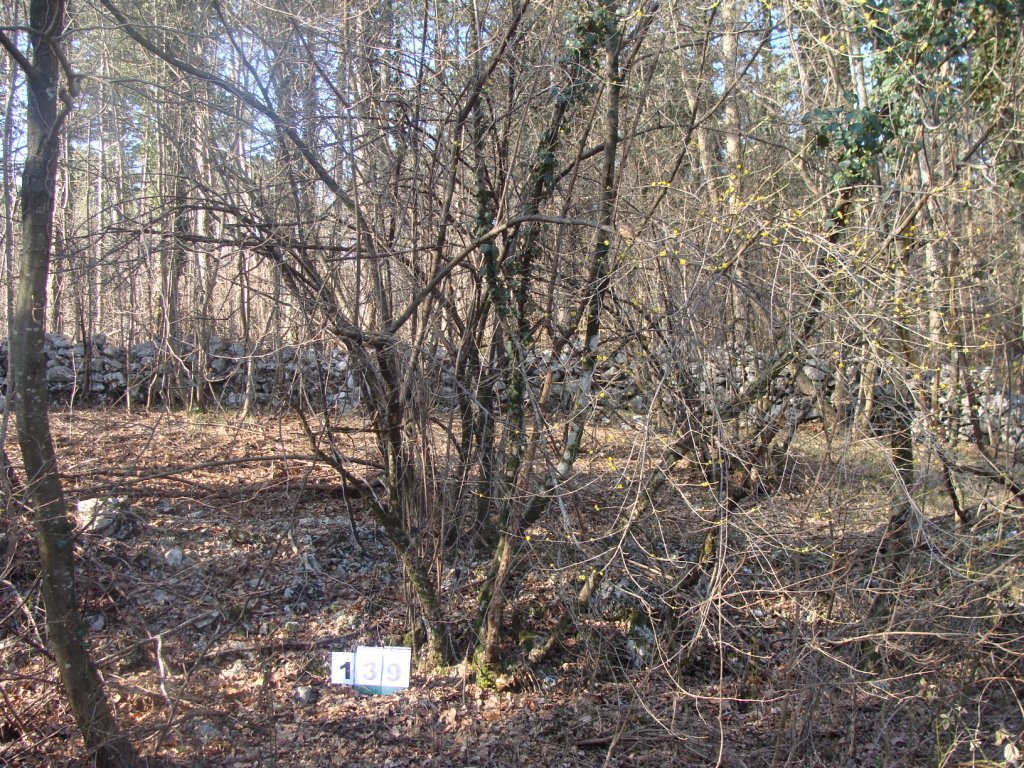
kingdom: Plantae
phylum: Tracheophyta
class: Magnoliopsida
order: Cornales
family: Cornaceae
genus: Cornus
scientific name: Cornus mas
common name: Cornelian-cherry
